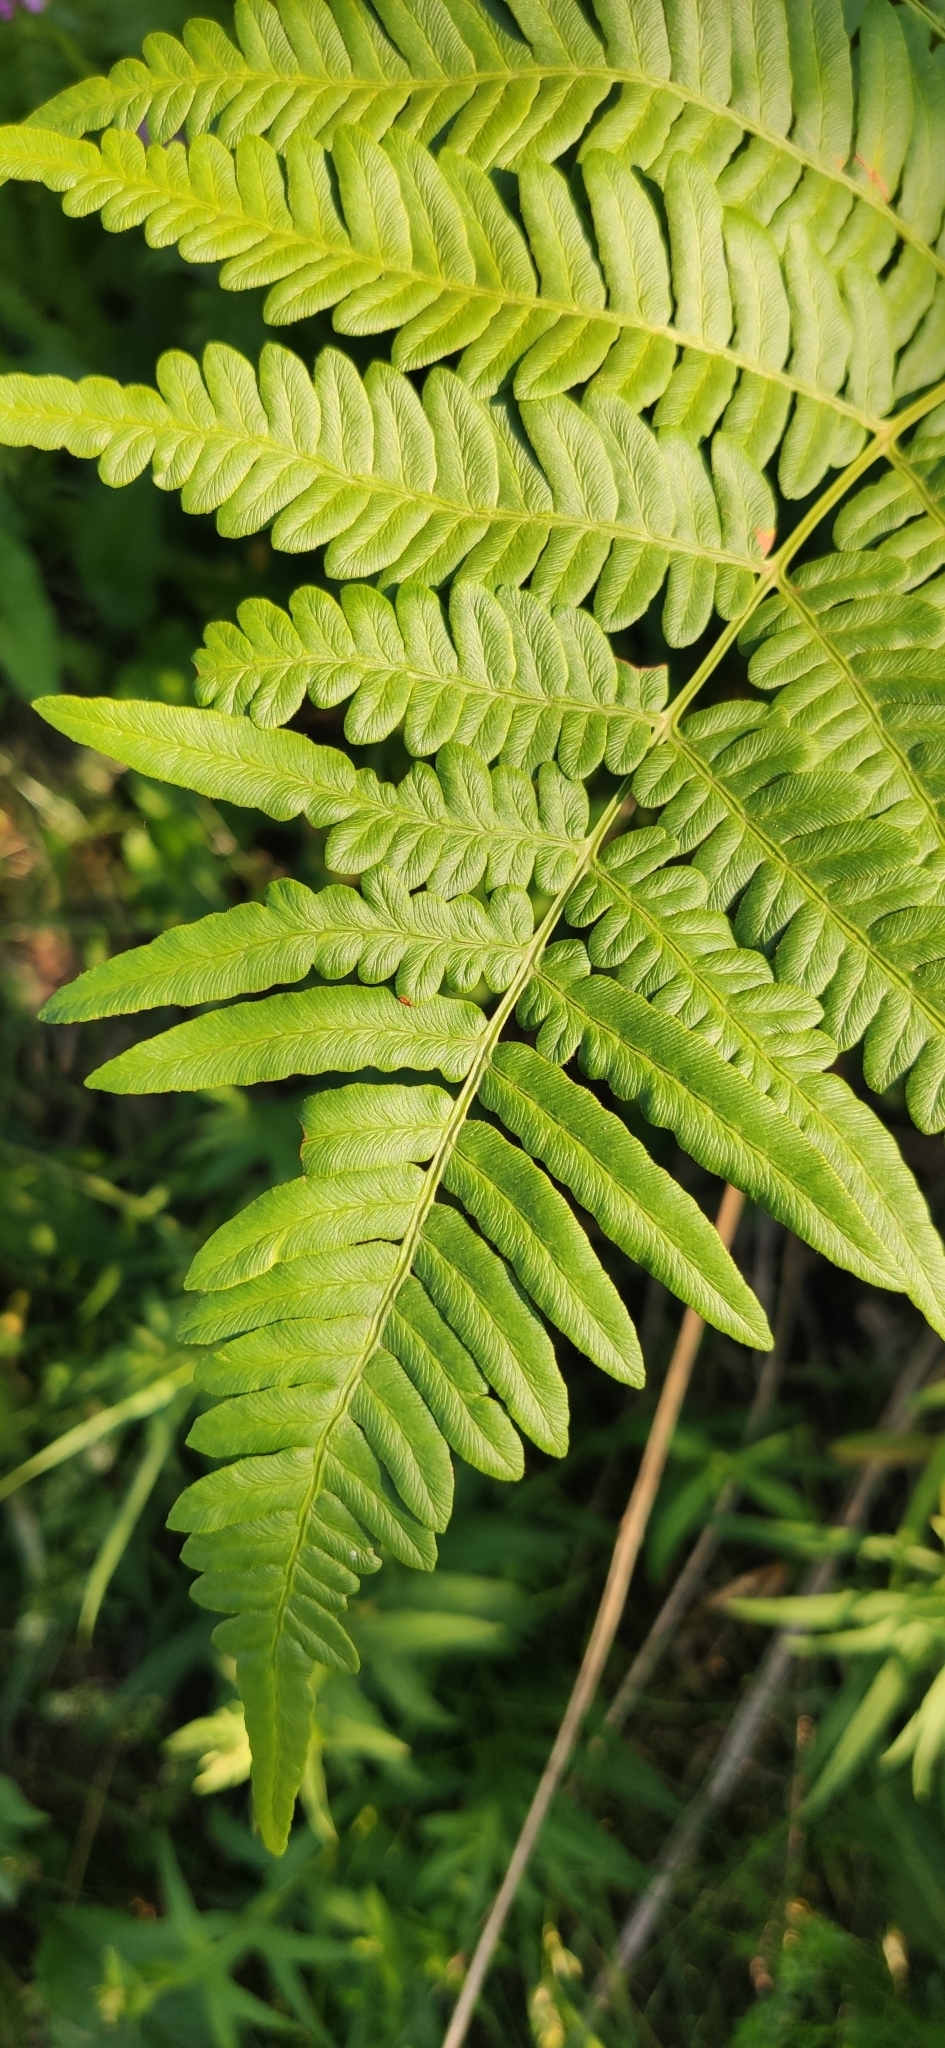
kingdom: Plantae
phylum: Tracheophyta
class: Polypodiopsida
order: Polypodiales
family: Dennstaedtiaceae
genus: Pteridium
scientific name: Pteridium aquilinum
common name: Bracken
